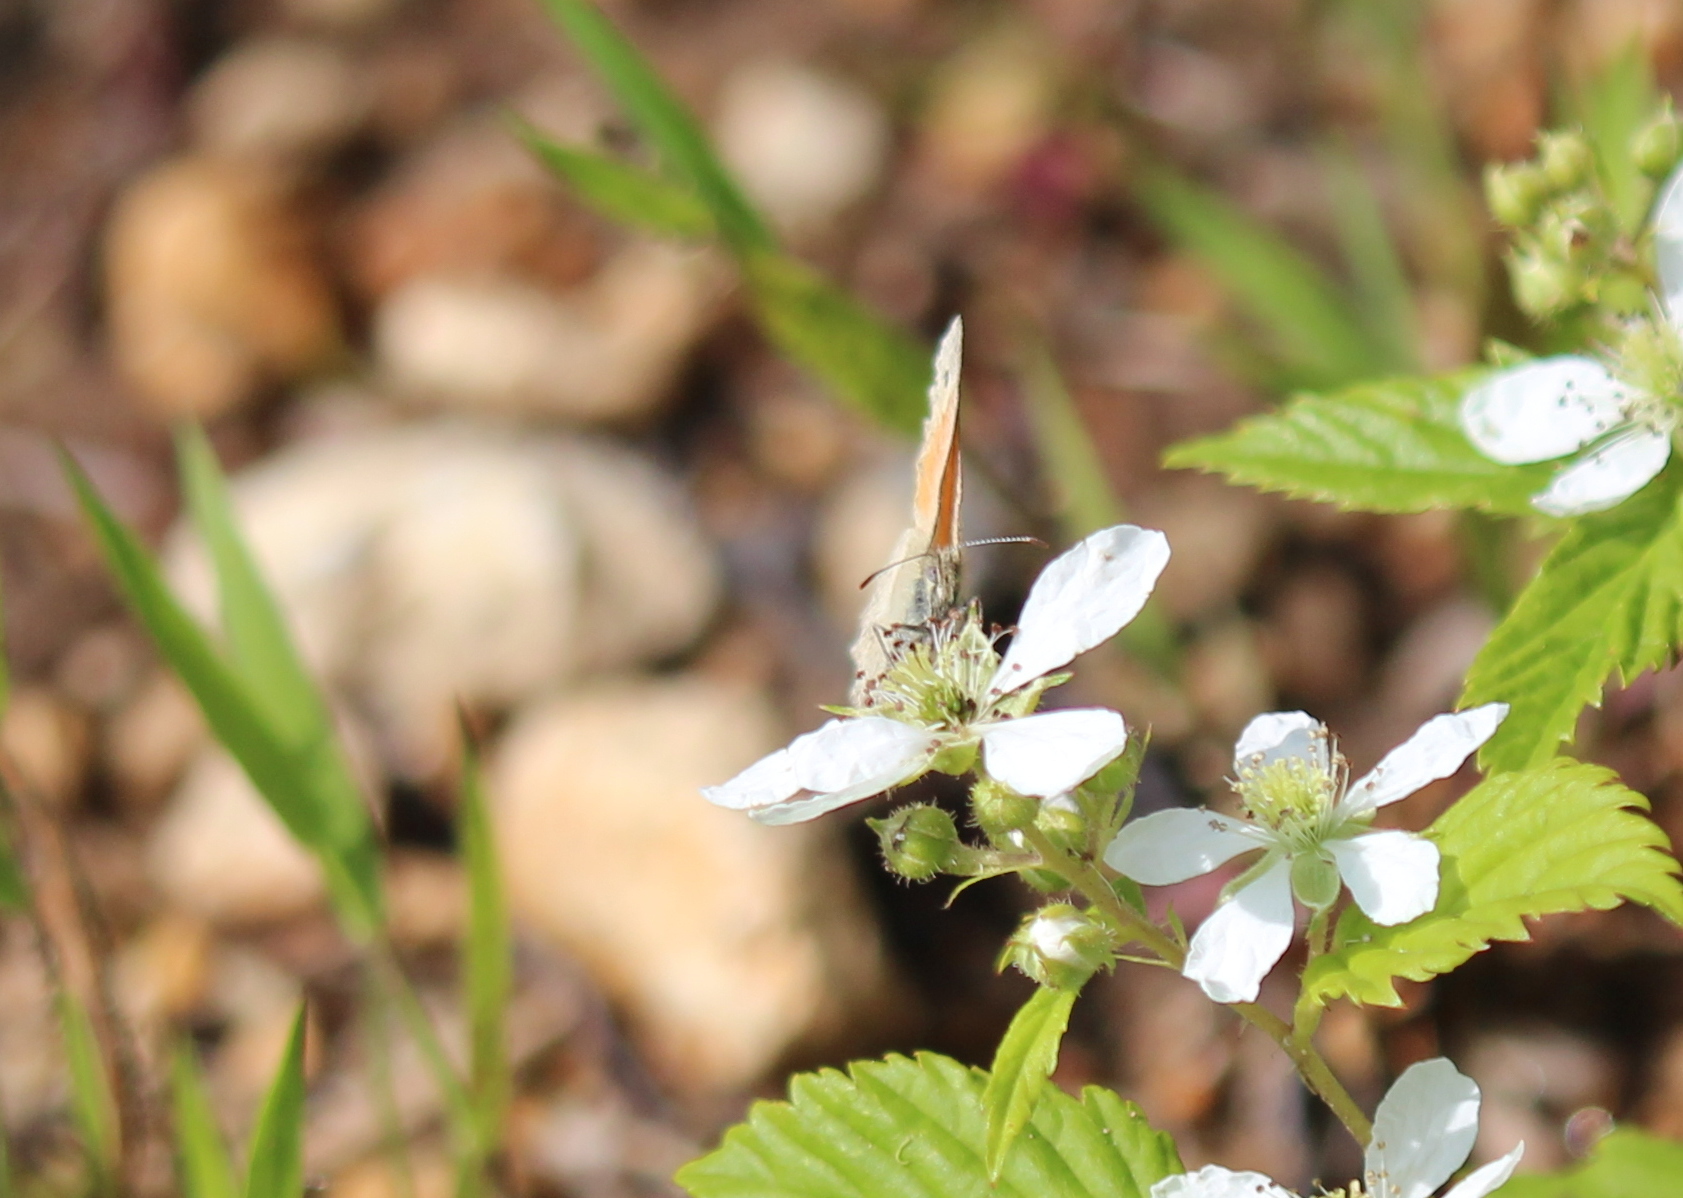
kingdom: Animalia
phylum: Arthropoda
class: Insecta
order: Lepidoptera
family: Nymphalidae
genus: Coenonympha
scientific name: Coenonympha california
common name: Common ringlet
